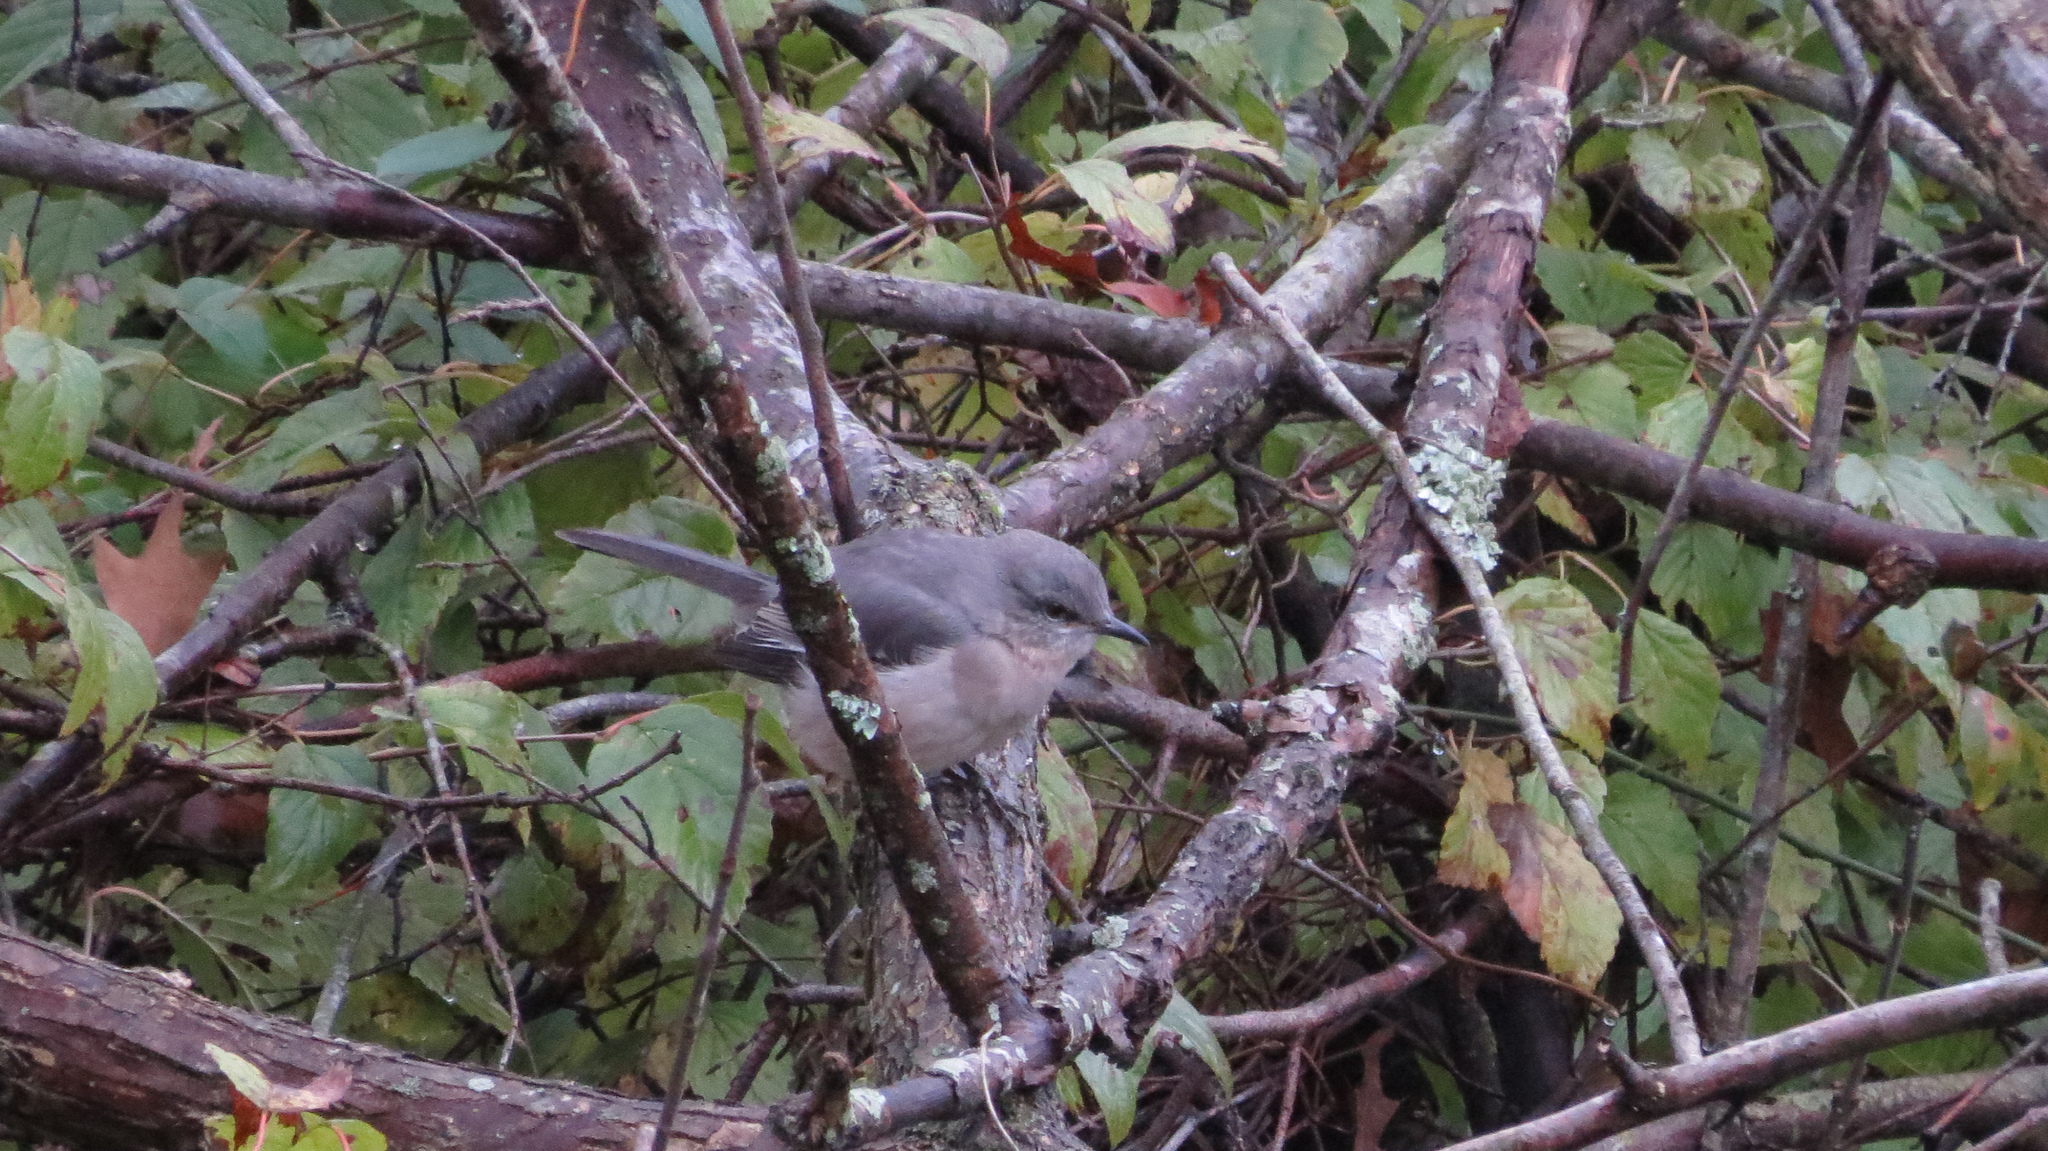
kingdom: Animalia
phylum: Chordata
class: Aves
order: Passeriformes
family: Mimidae
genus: Mimus
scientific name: Mimus polyglottos
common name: Northern mockingbird
